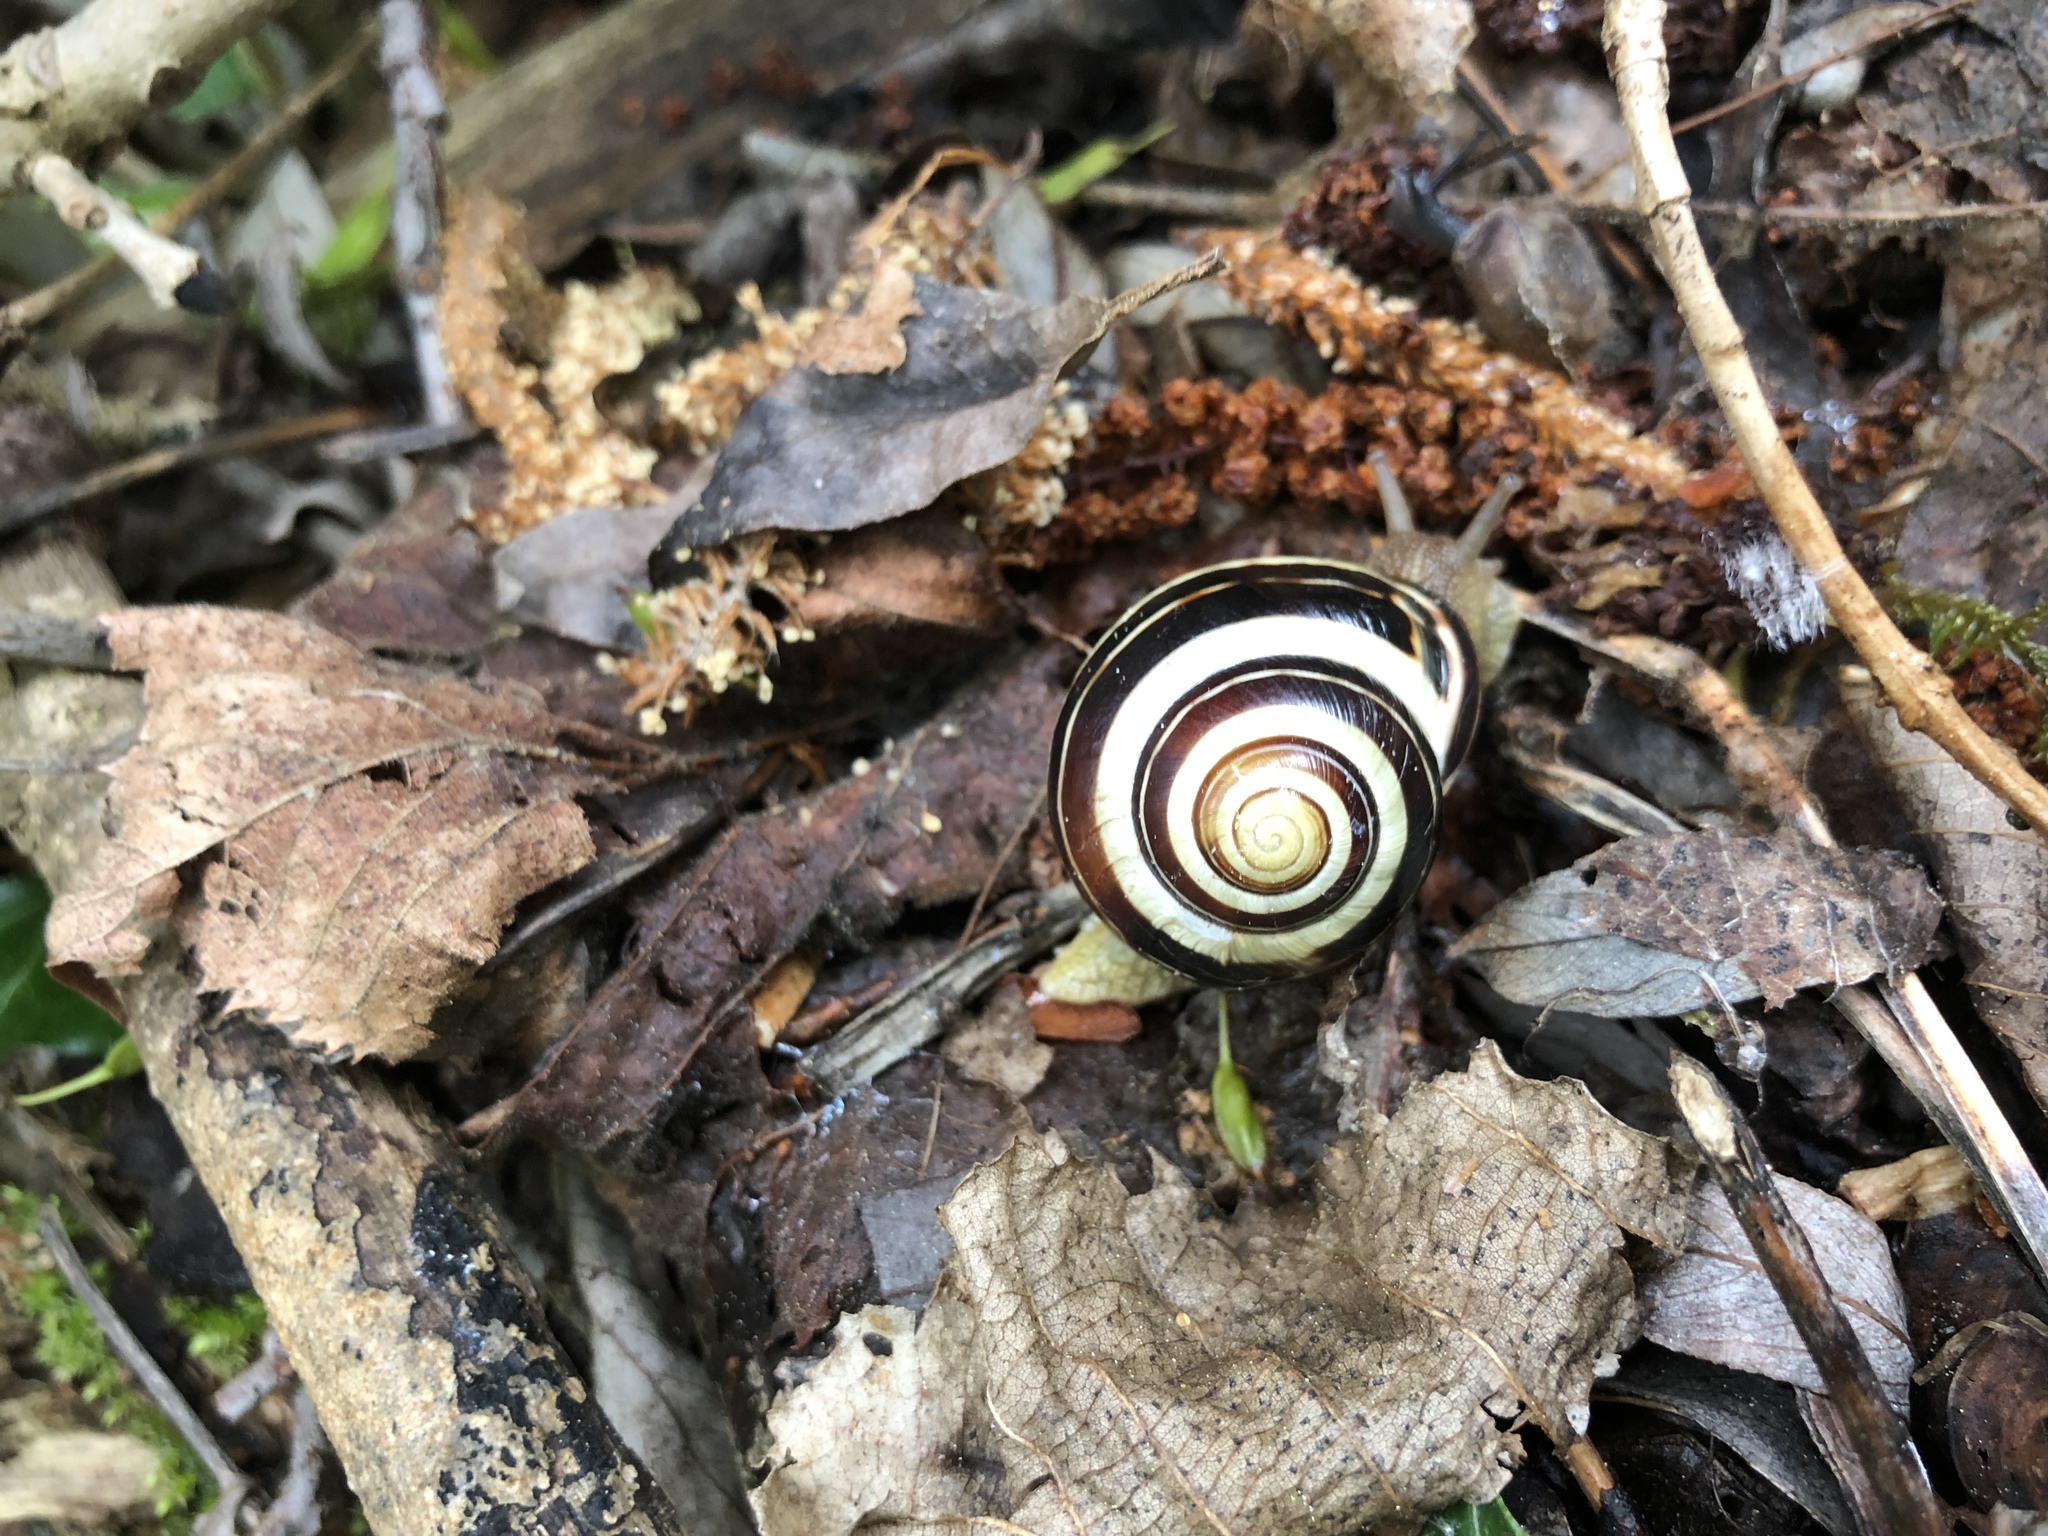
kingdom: Animalia
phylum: Mollusca
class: Gastropoda
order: Stylommatophora
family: Helicidae
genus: Cepaea
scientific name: Cepaea nemoralis
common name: Grovesnail
